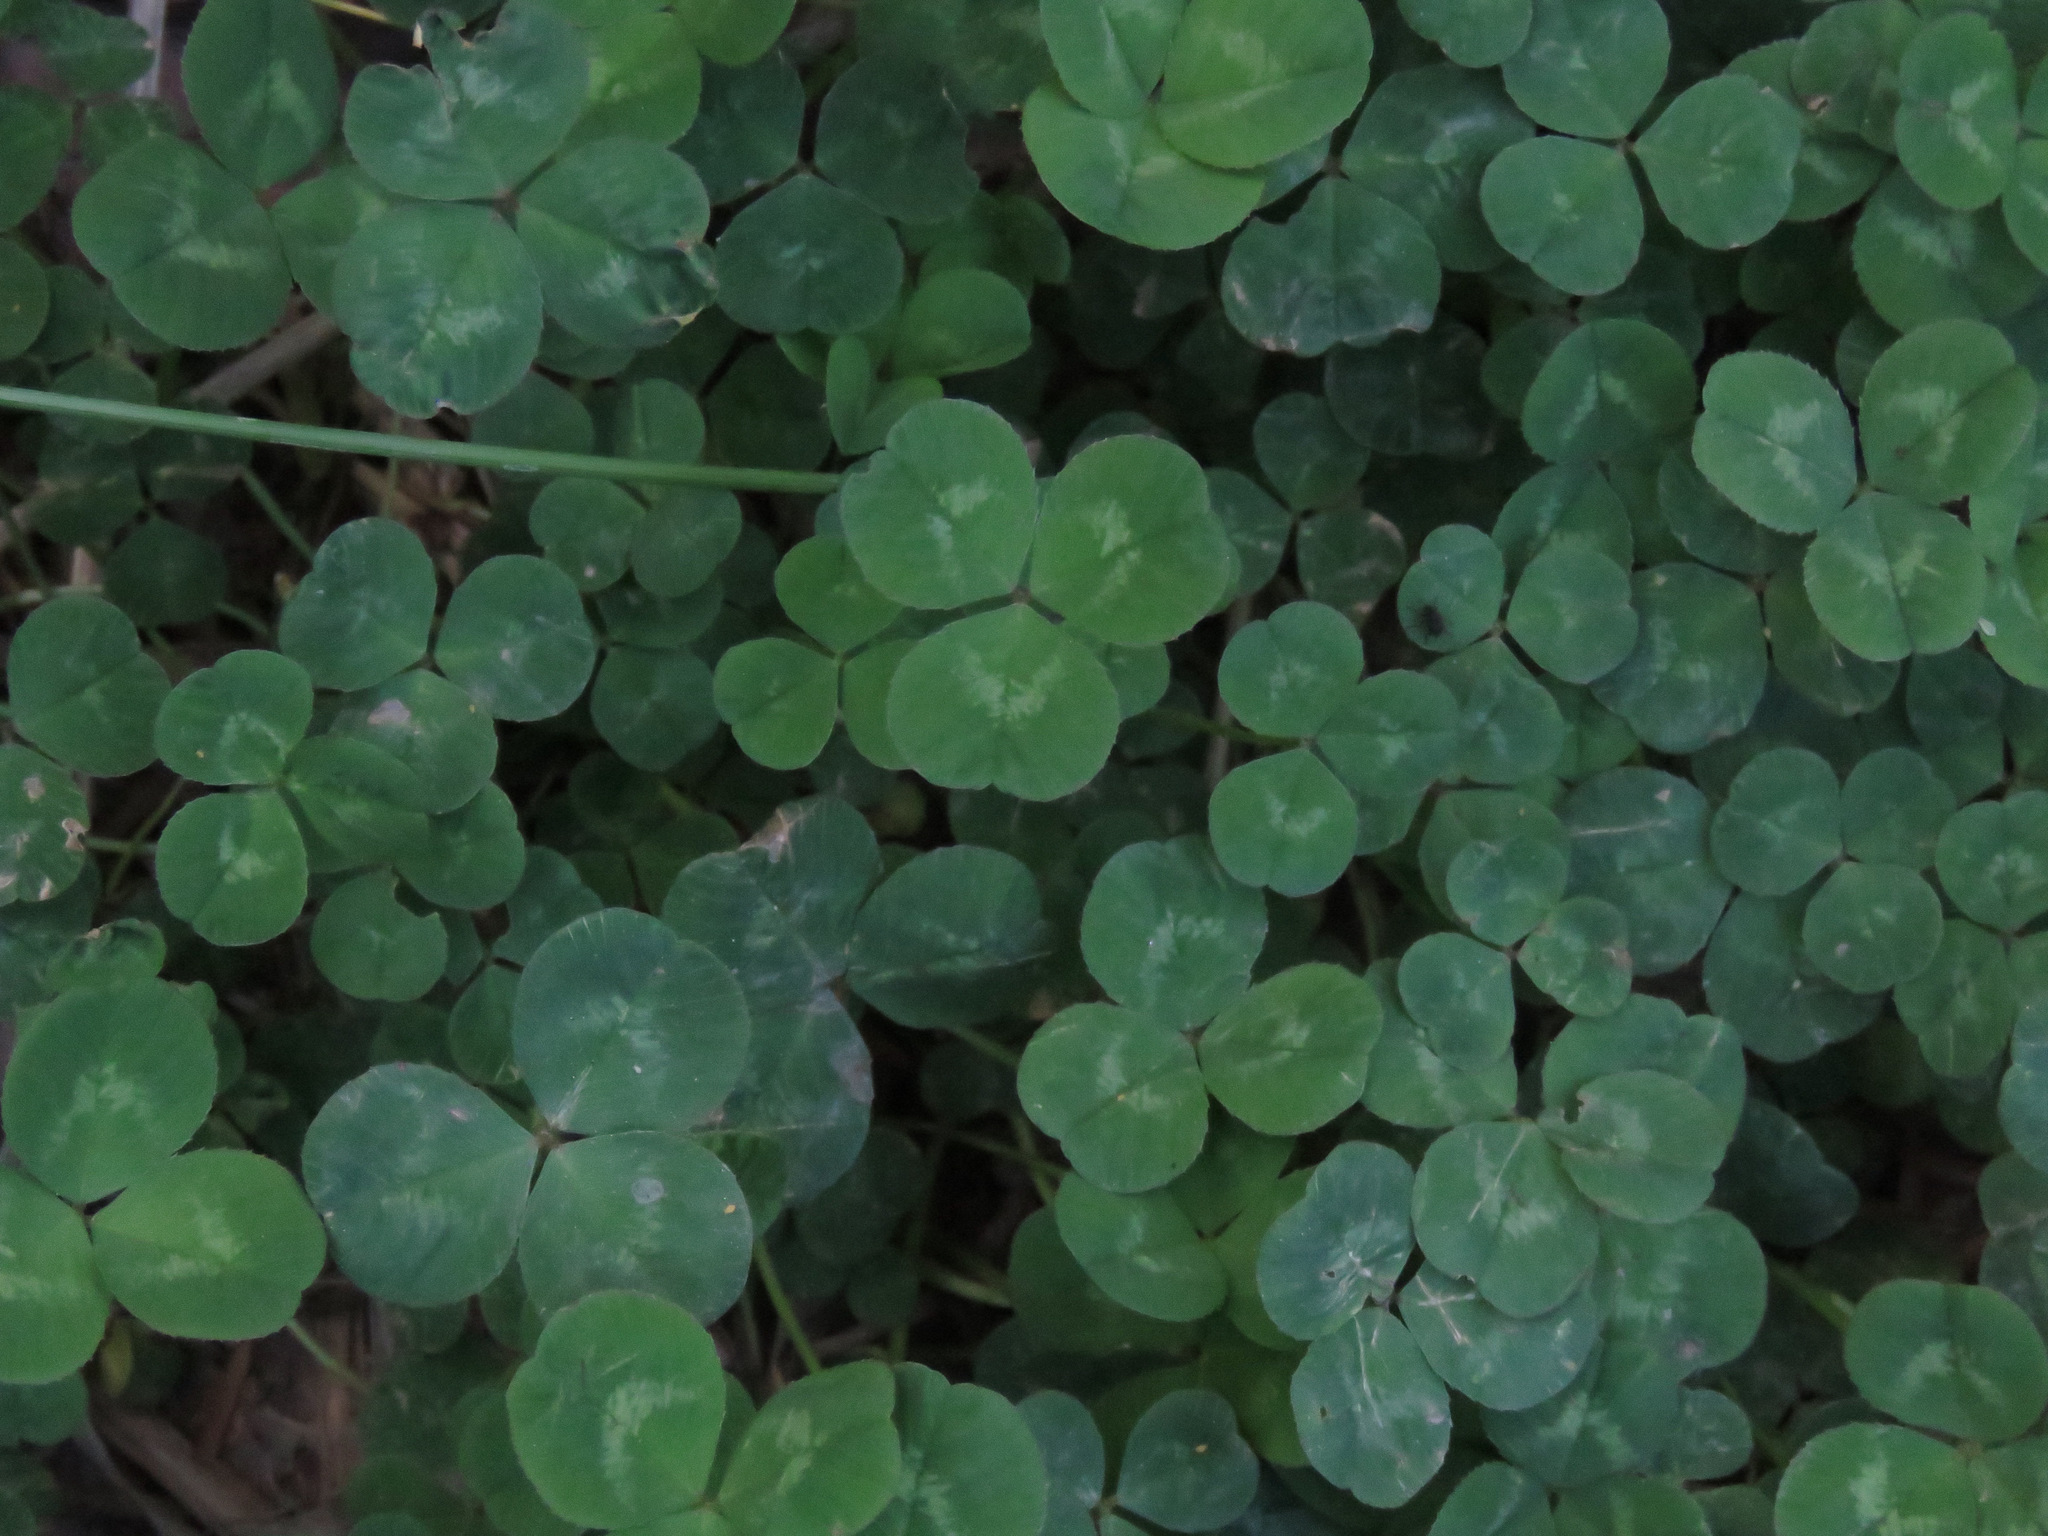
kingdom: Plantae
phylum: Tracheophyta
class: Magnoliopsida
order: Fabales
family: Fabaceae
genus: Trifolium
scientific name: Trifolium repens
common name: White clover
